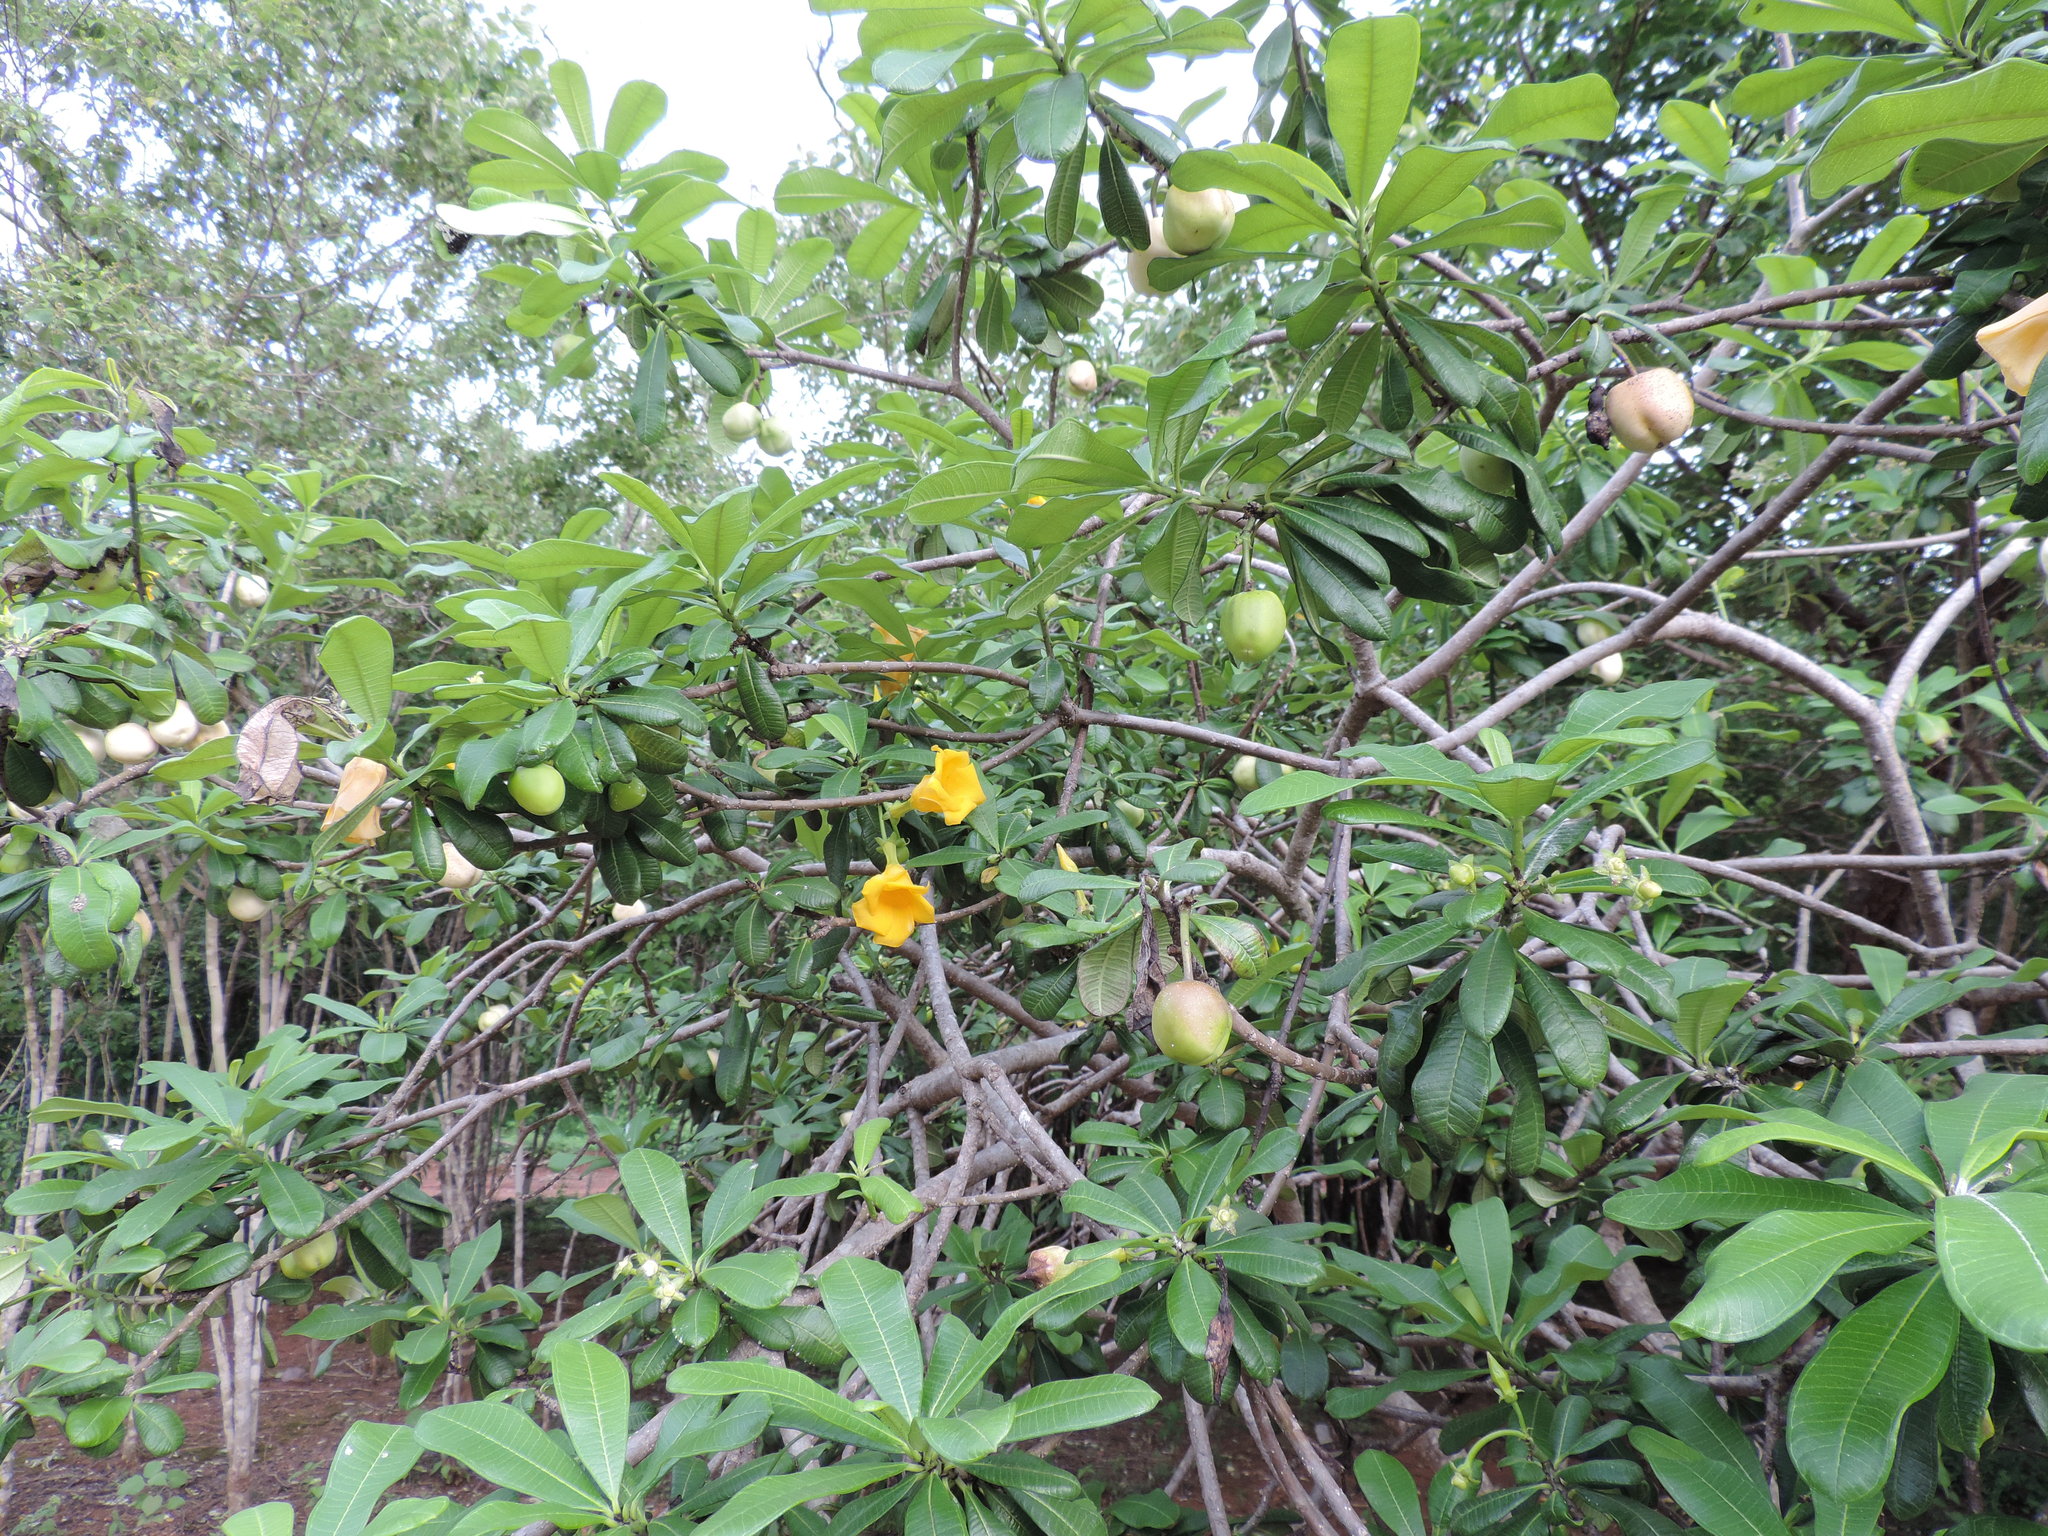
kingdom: Plantae
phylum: Tracheophyta
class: Magnoliopsida
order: Gentianales
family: Apocynaceae
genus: Cascabela
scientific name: Cascabela ovata
